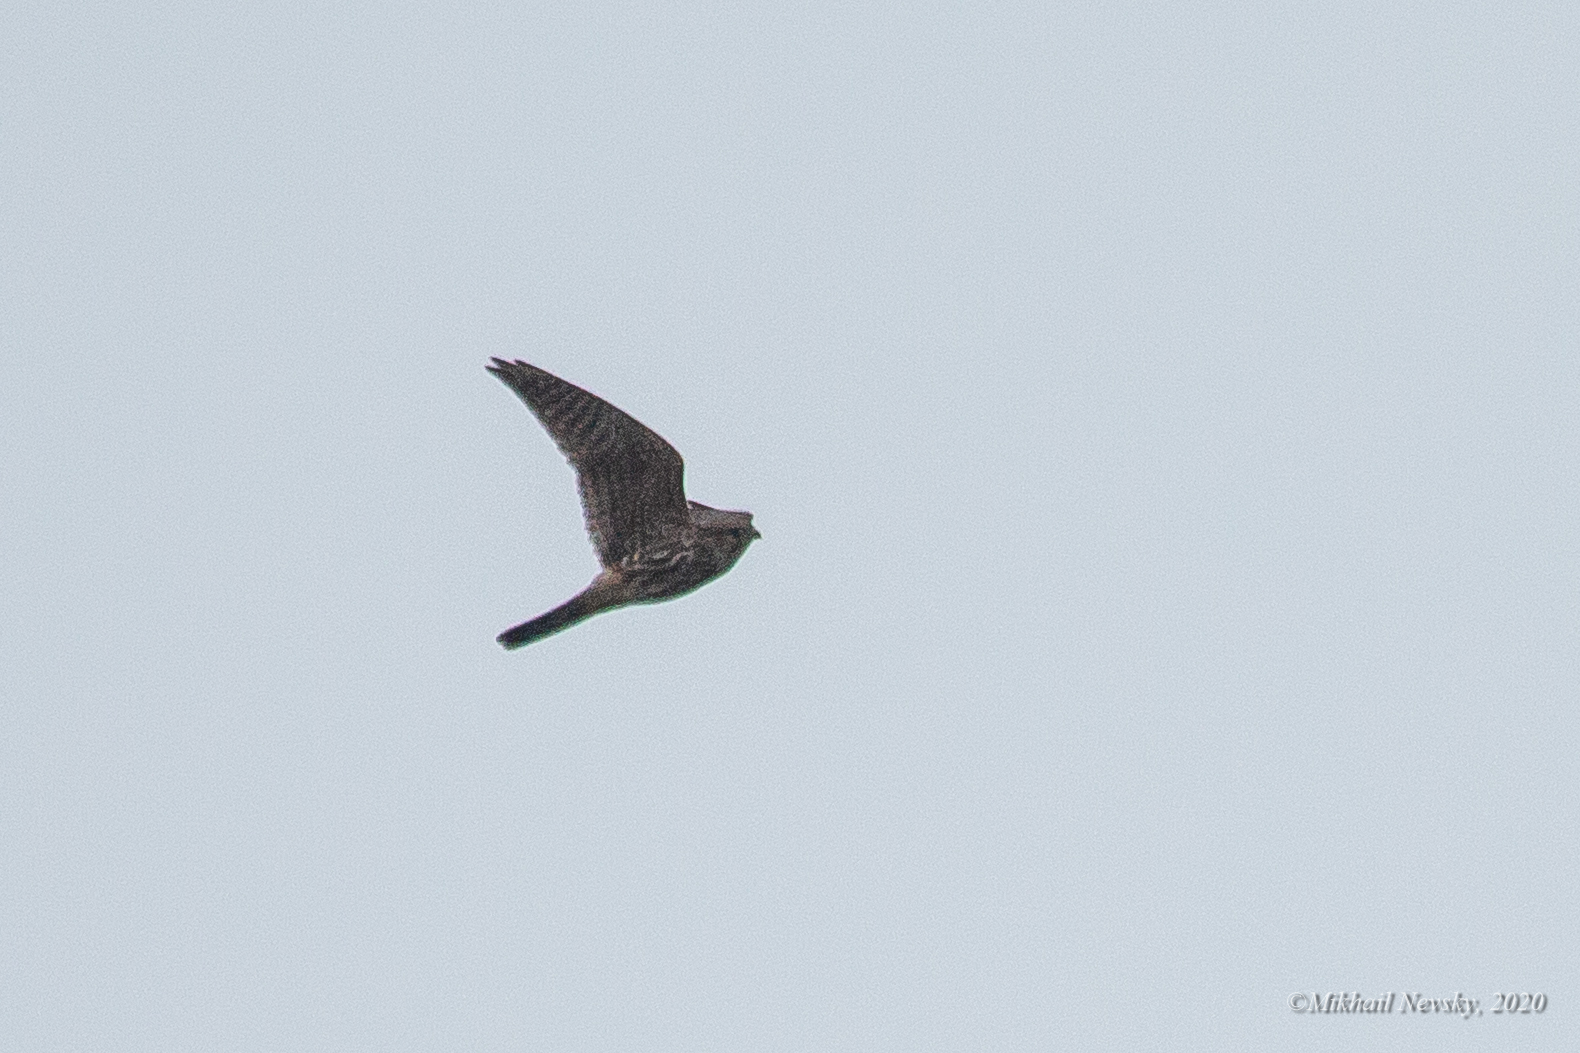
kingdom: Animalia
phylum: Chordata
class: Aves
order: Falconiformes
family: Falconidae
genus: Falco
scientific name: Falco columbarius
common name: Merlin
